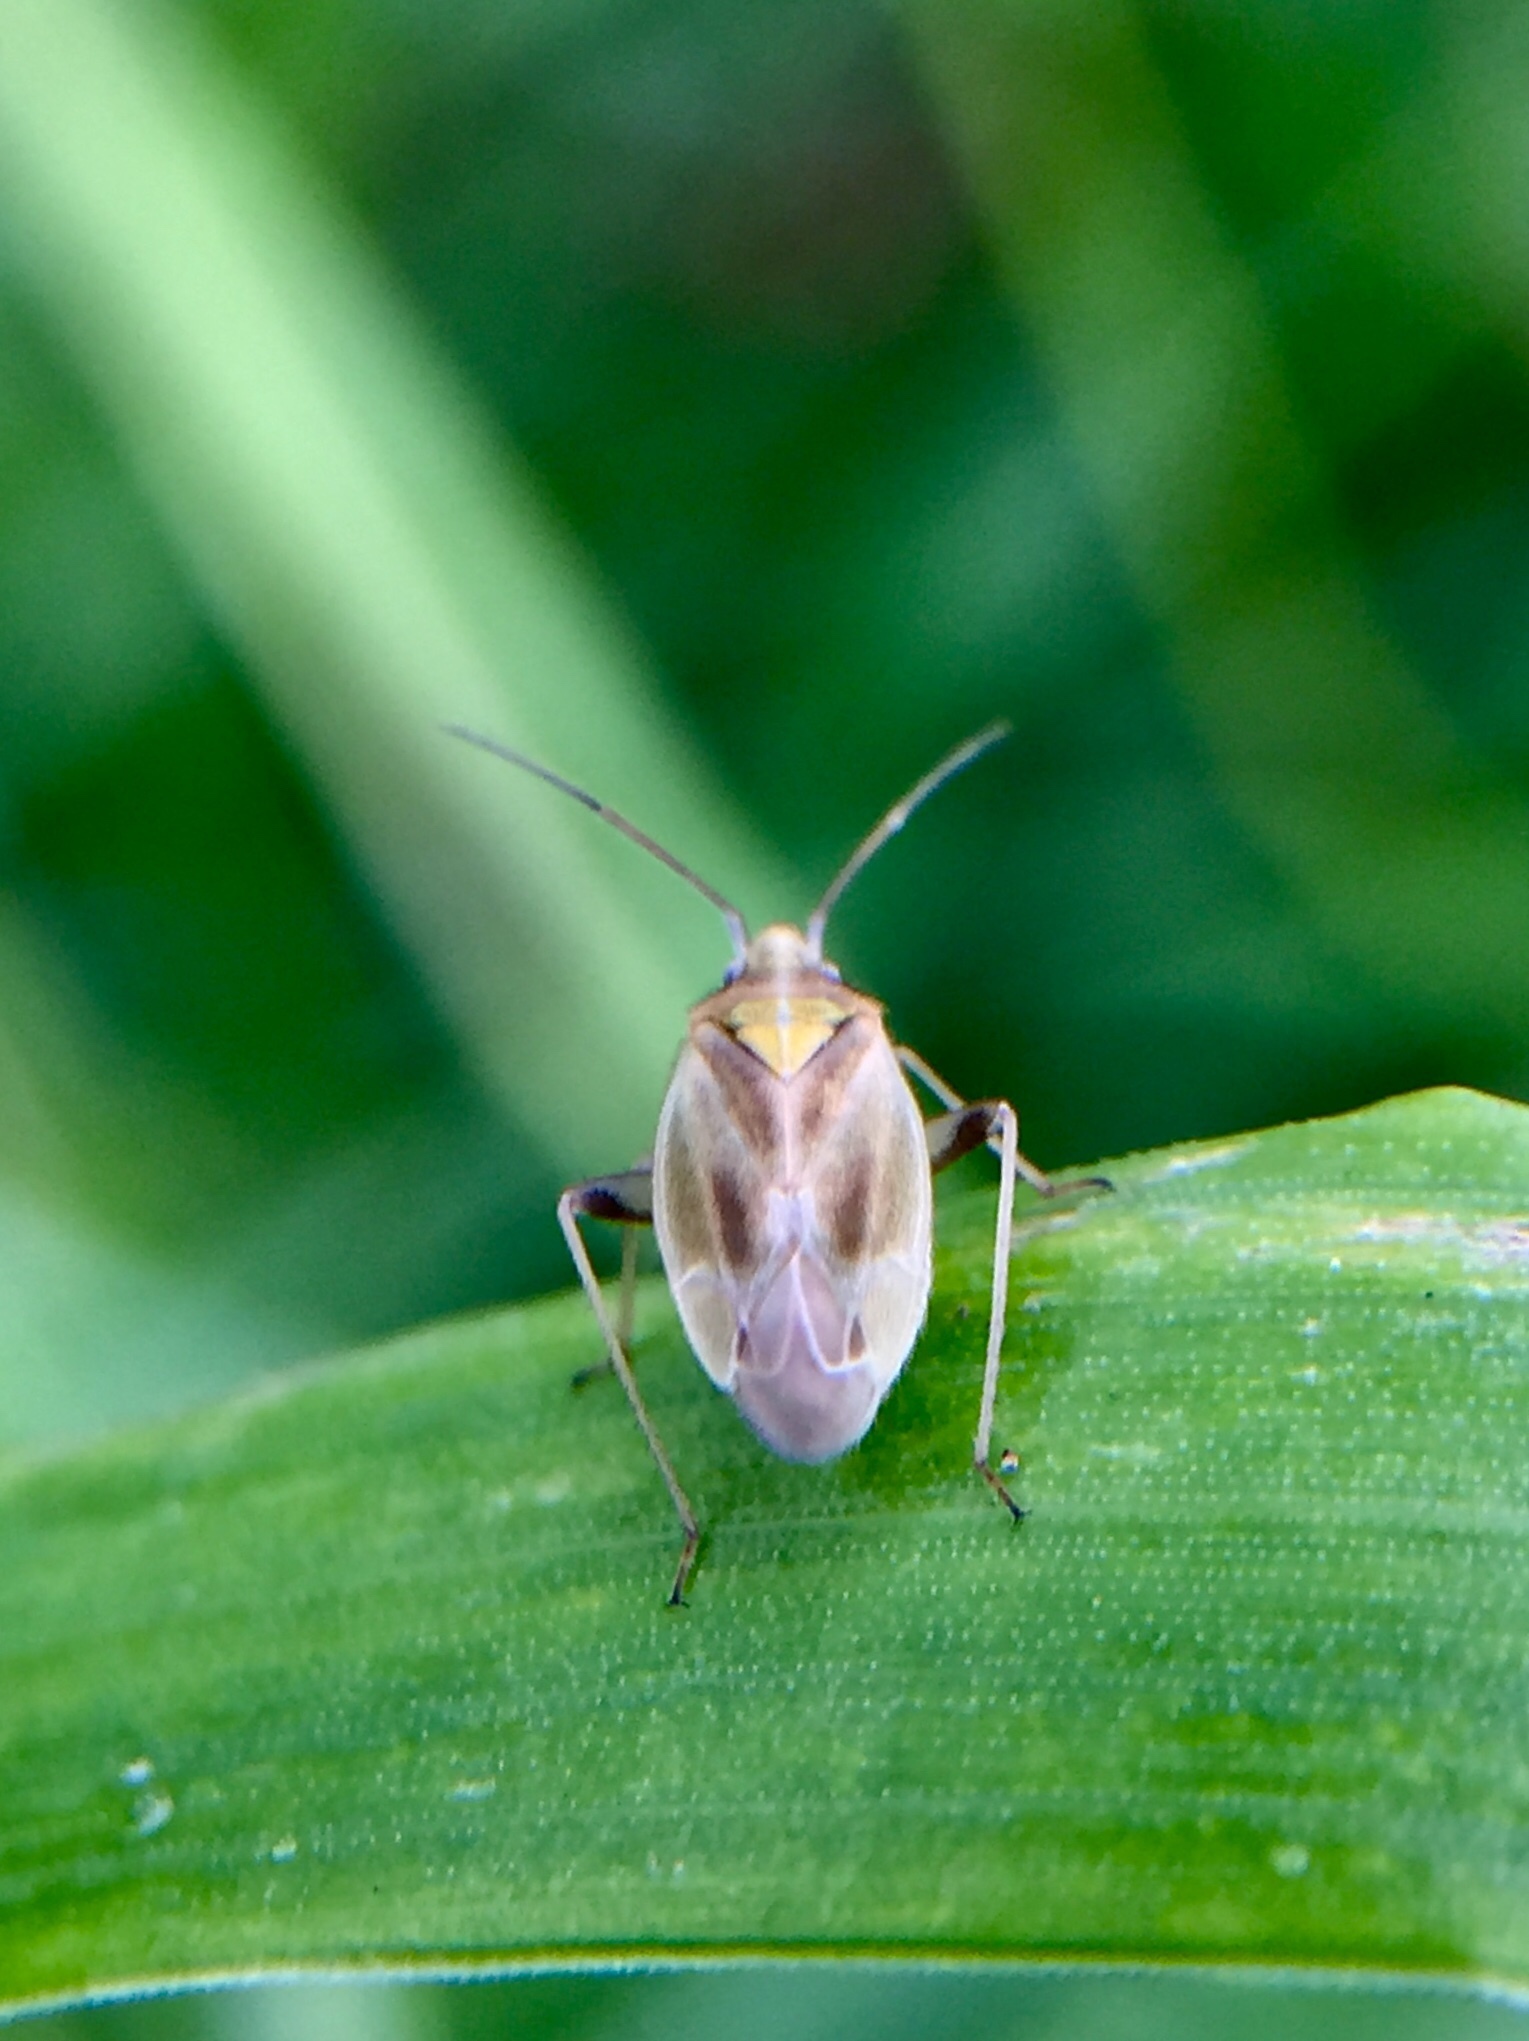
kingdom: Animalia
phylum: Arthropoda
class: Insecta
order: Hemiptera
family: Miridae
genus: Amblytylus
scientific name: Amblytylus nasutus
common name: Plant bug
